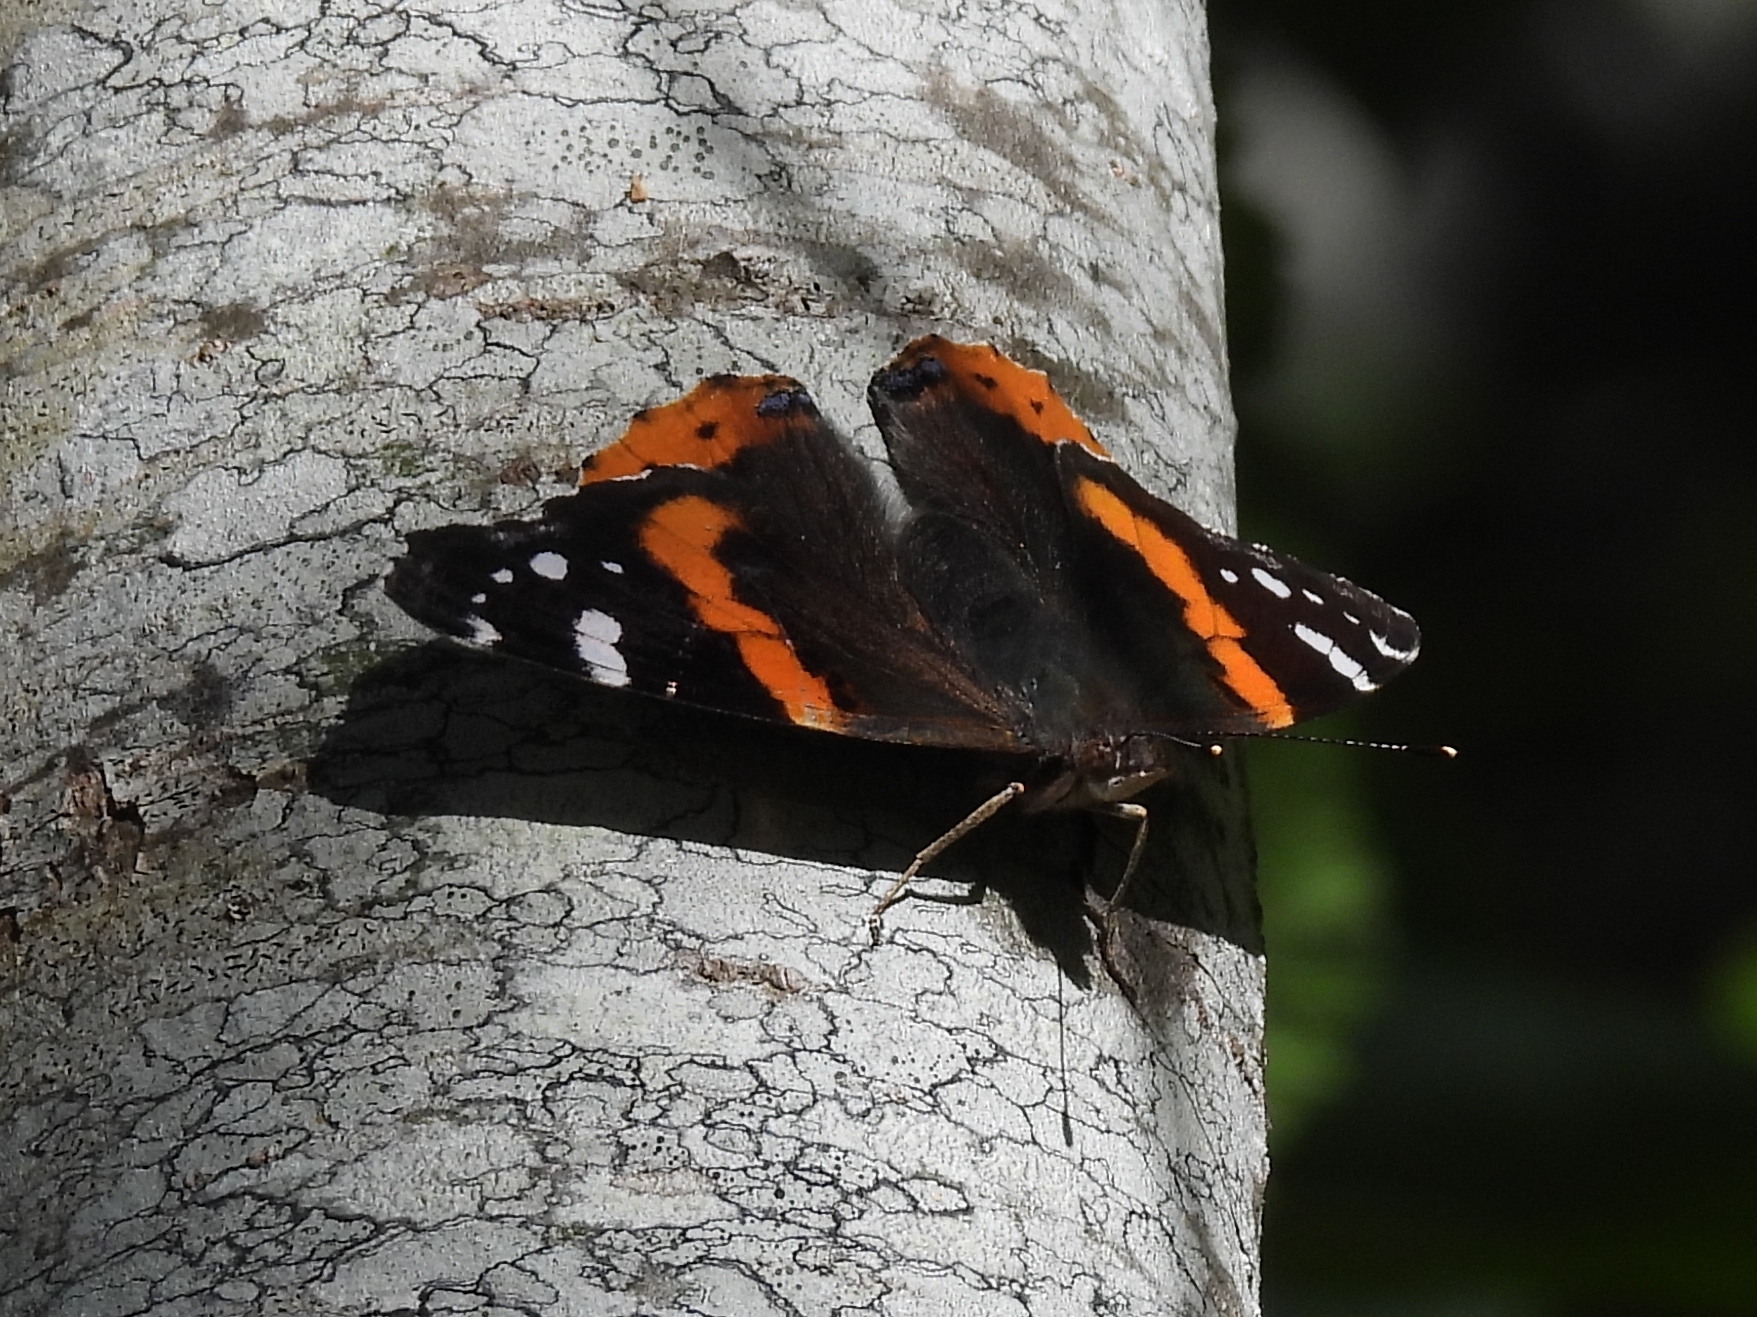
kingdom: Animalia
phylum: Arthropoda
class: Insecta
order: Lepidoptera
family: Nymphalidae
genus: Vanessa
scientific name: Vanessa atalanta
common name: Red admiral
